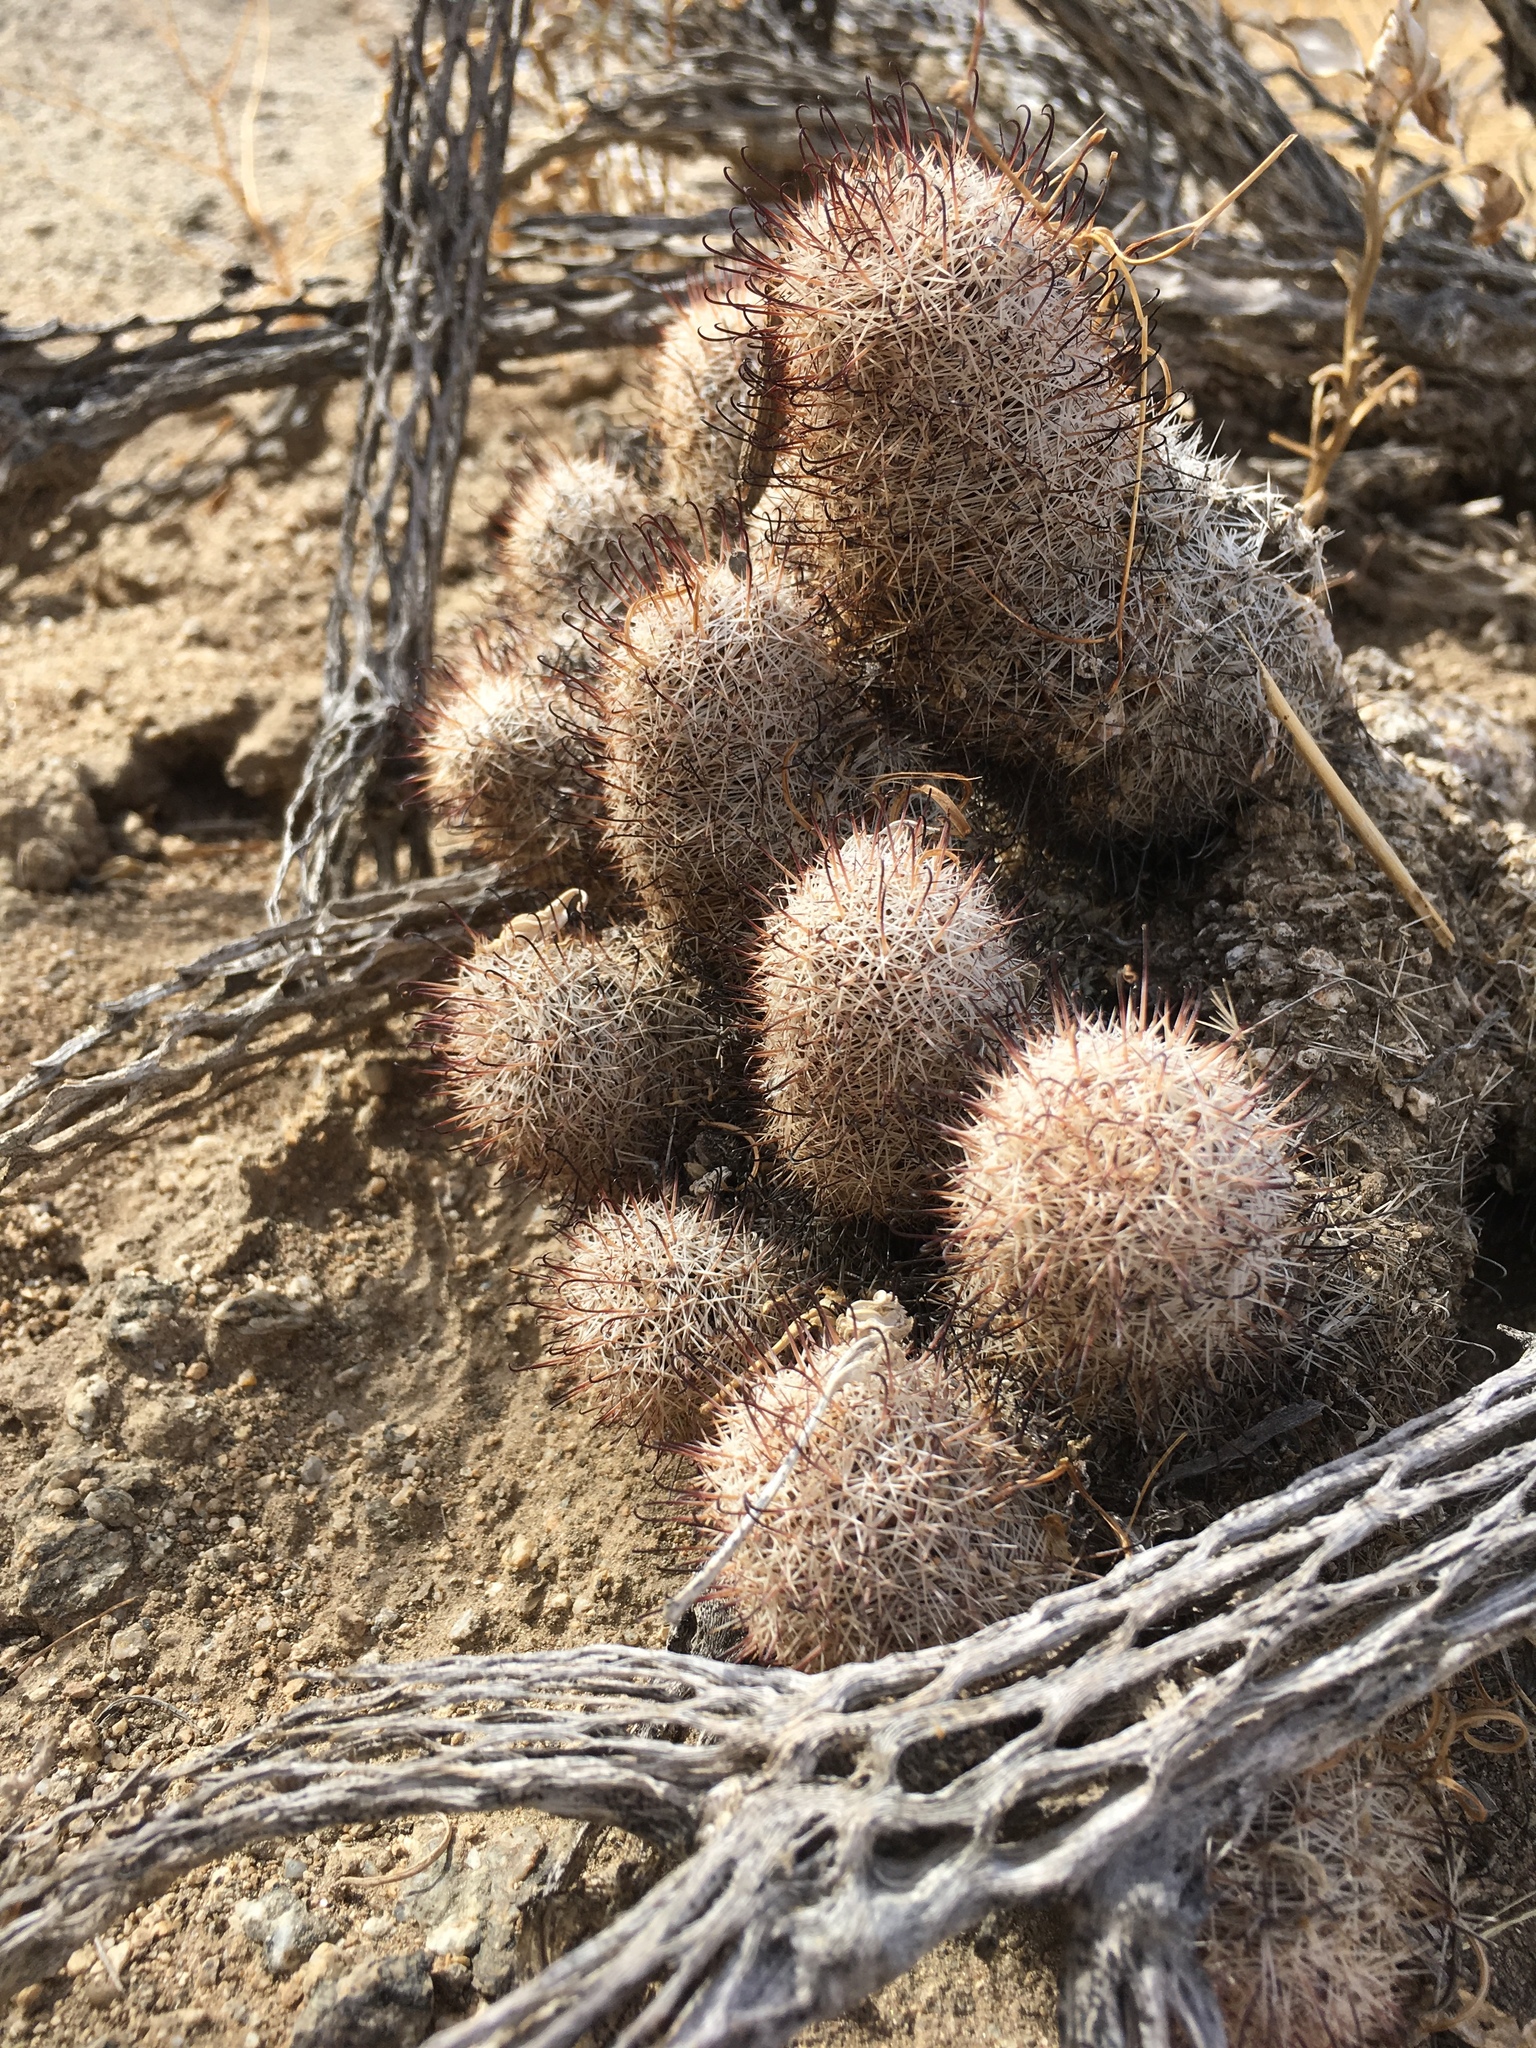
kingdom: Plantae
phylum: Tracheophyta
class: Magnoliopsida
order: Caryophyllales
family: Cactaceae
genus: Cochemiea
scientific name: Cochemiea dioica
